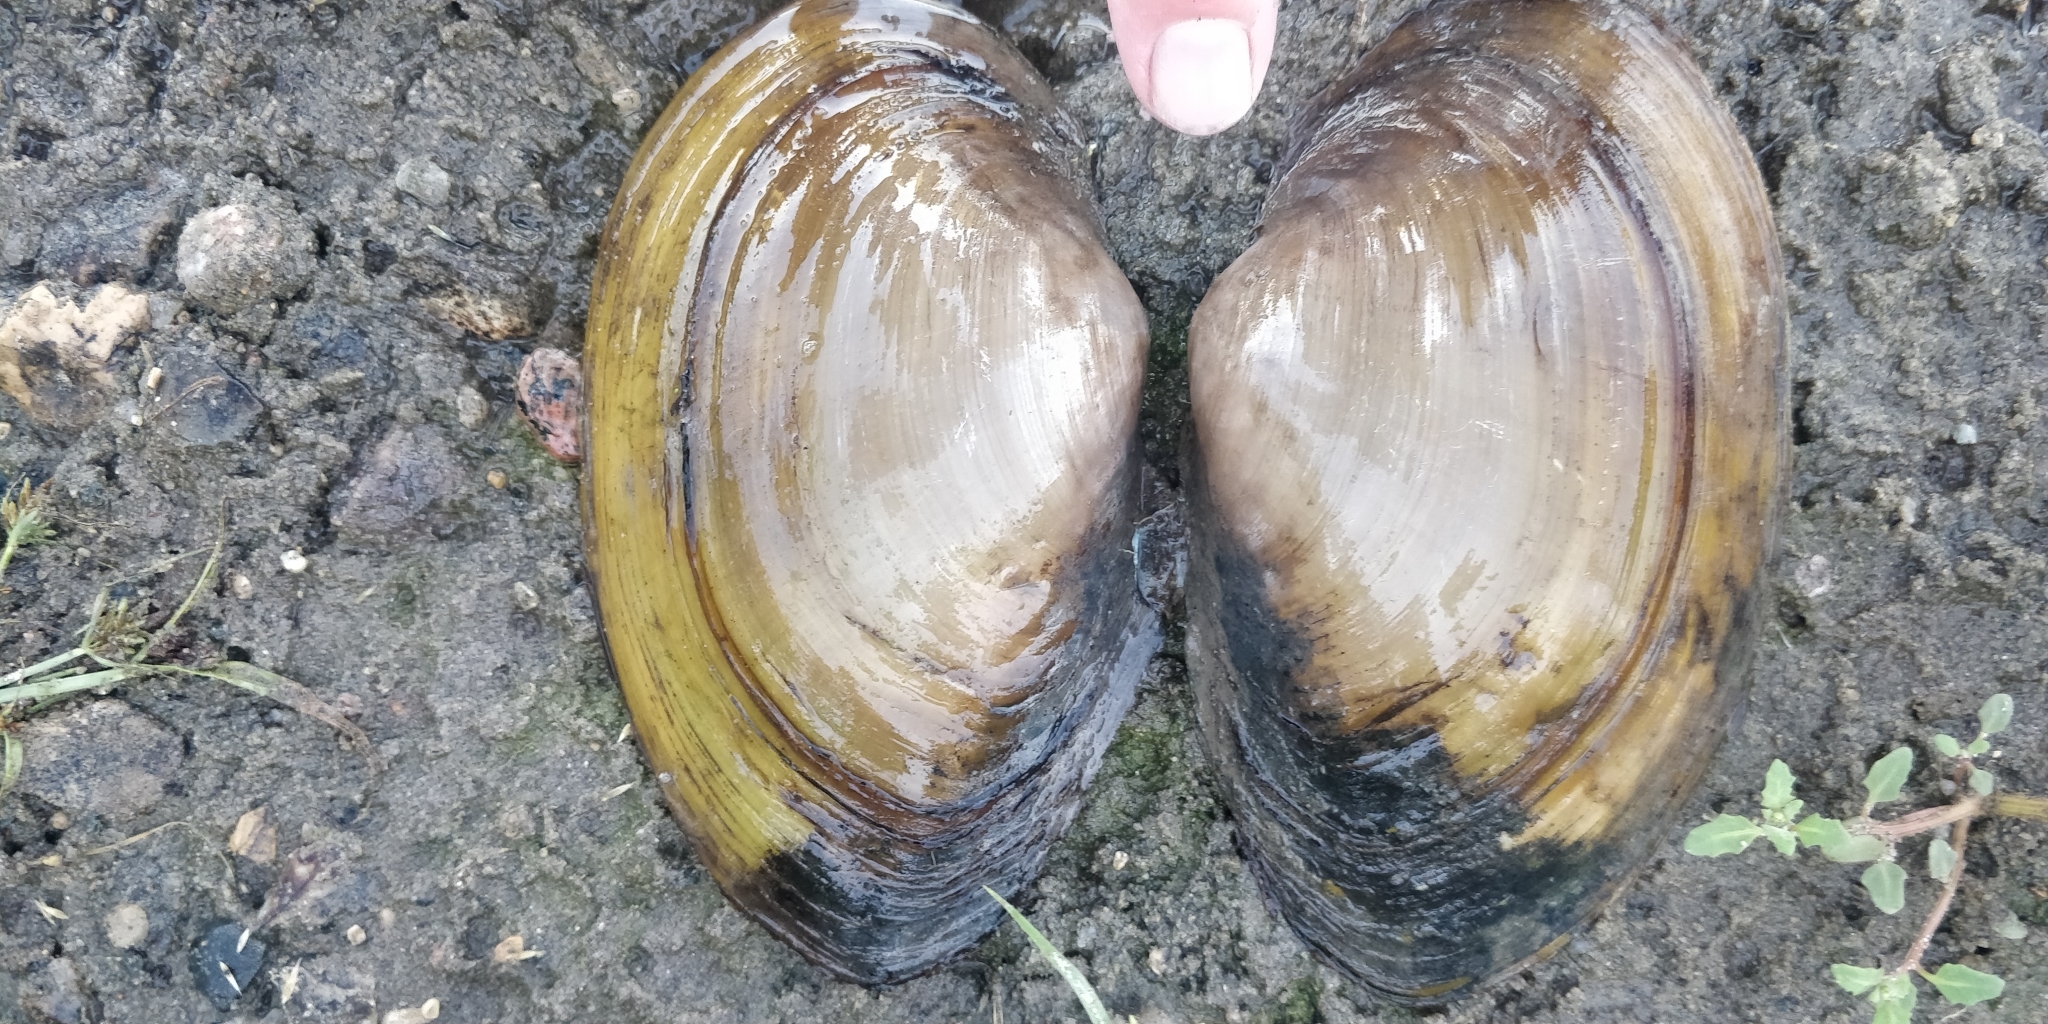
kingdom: Animalia
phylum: Mollusca
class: Bivalvia
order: Unionida
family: Unionidae
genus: Pyganodon
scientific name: Pyganodon grandis
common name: Giant floater
